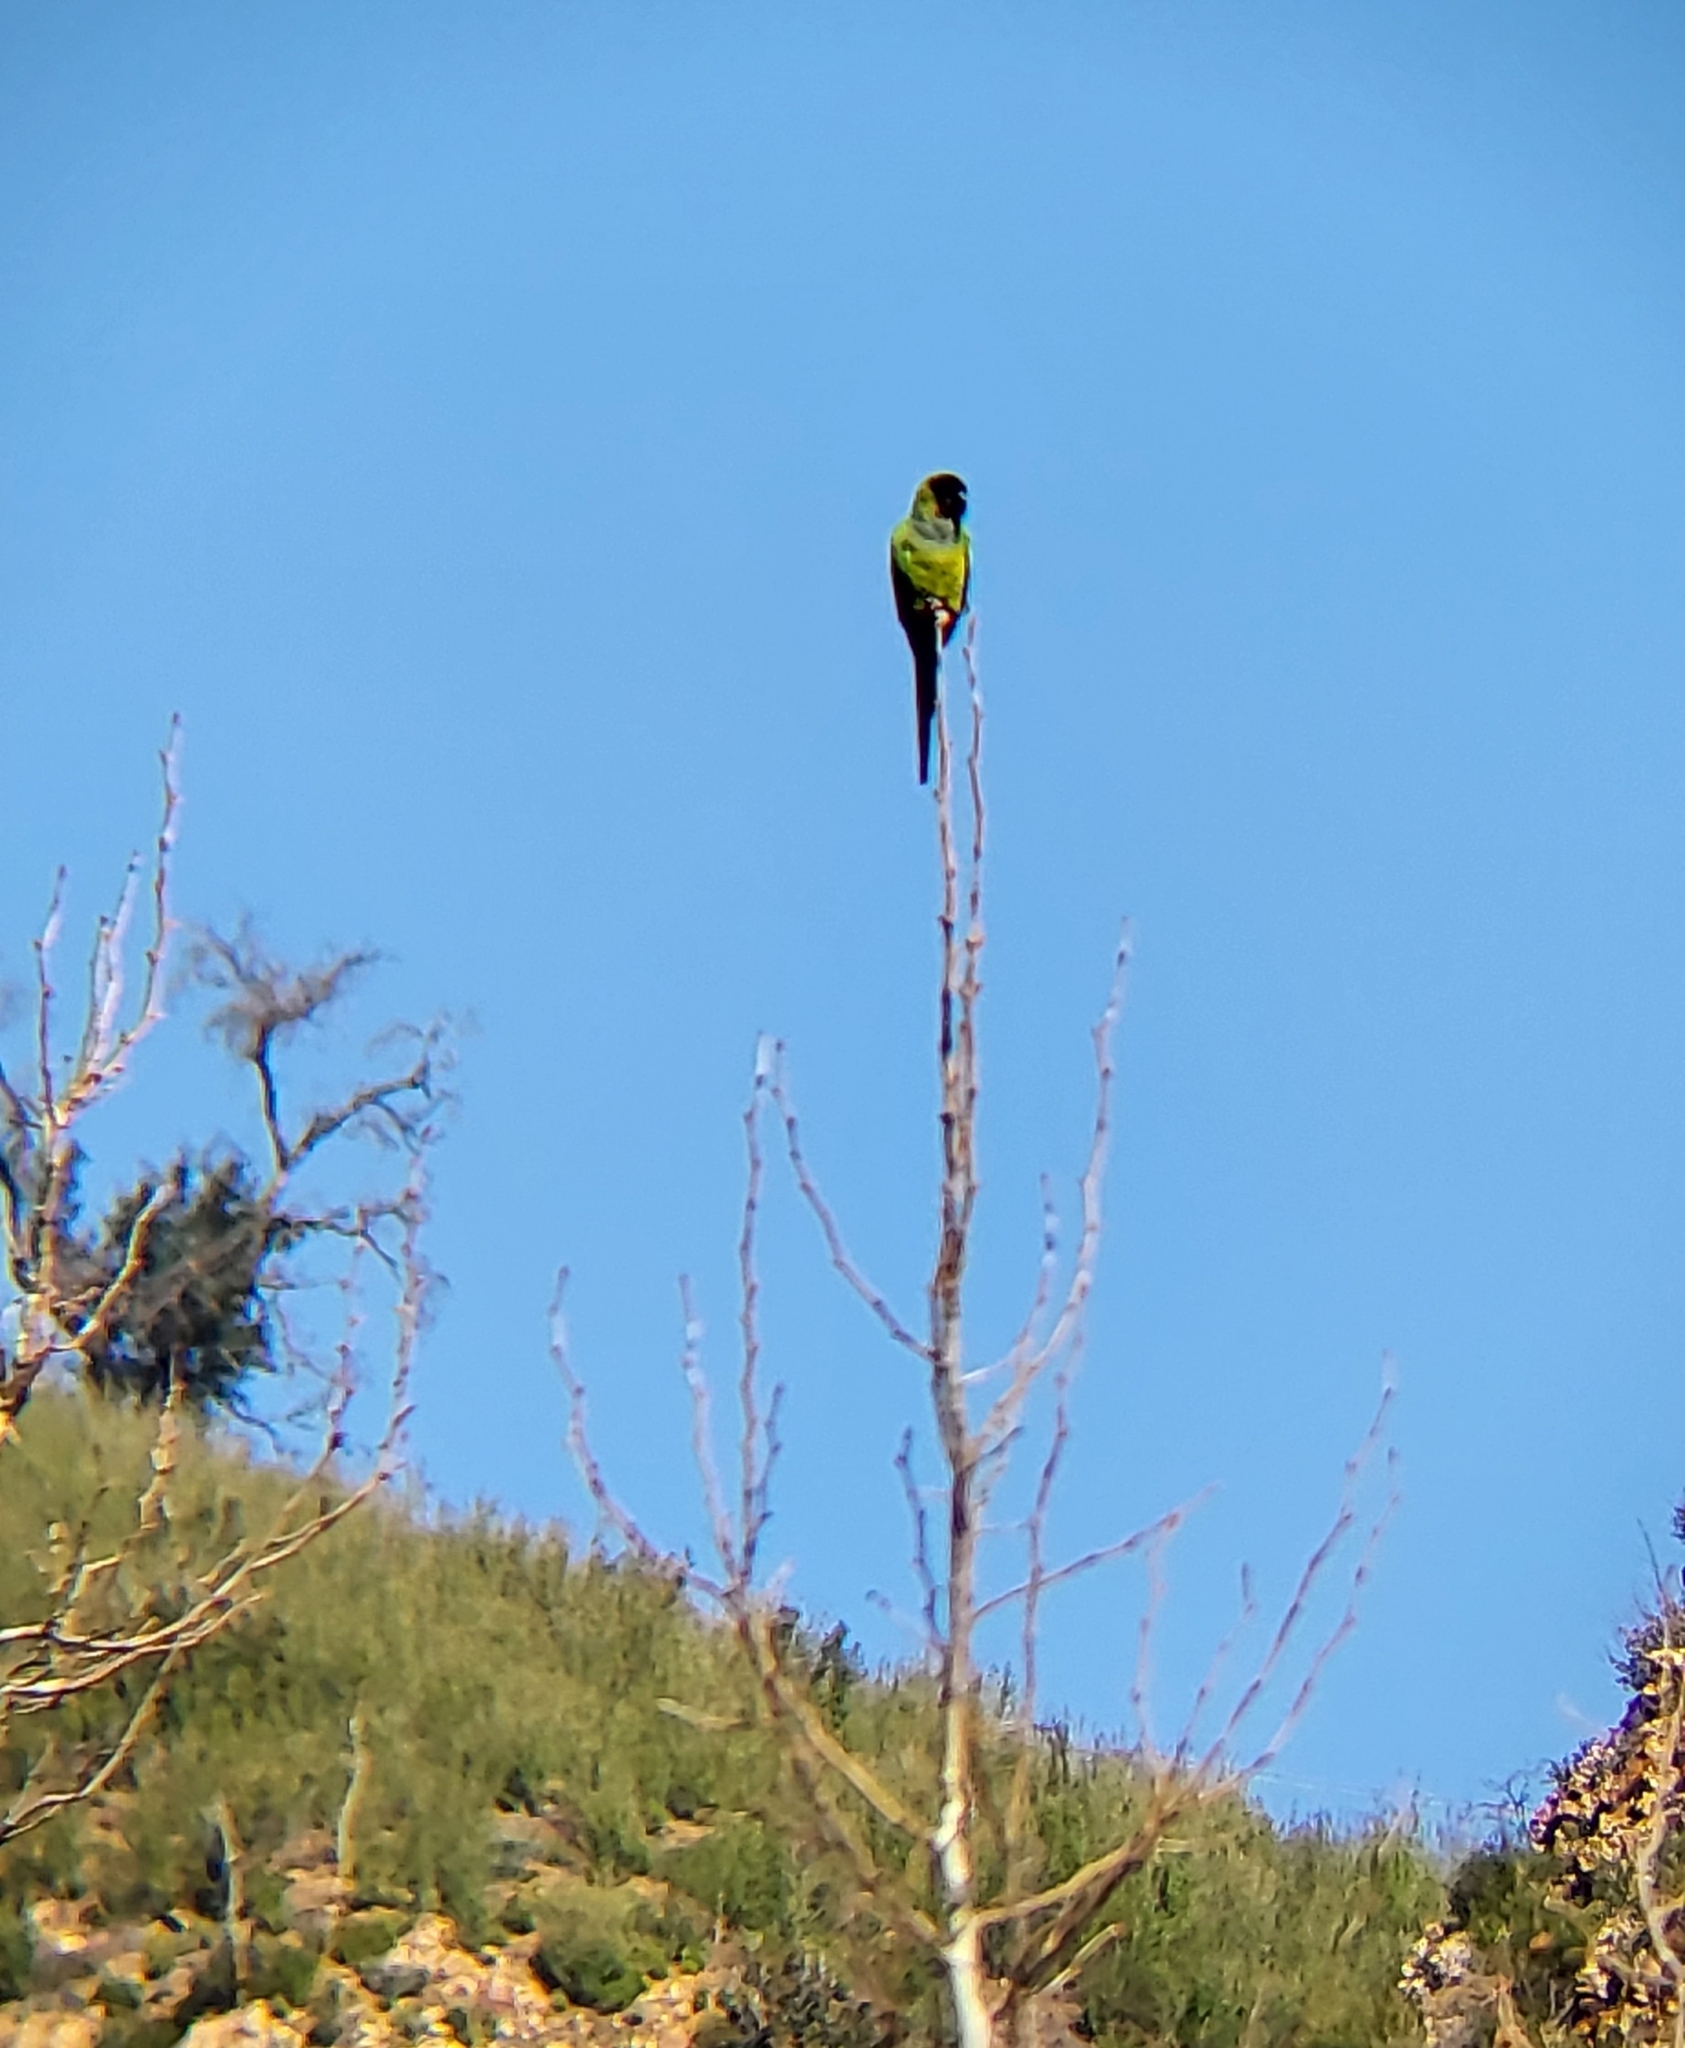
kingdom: Animalia
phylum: Chordata
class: Aves
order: Psittaciformes
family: Psittacidae
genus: Nandayus
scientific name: Nandayus nenday
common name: Nanday parakeet
